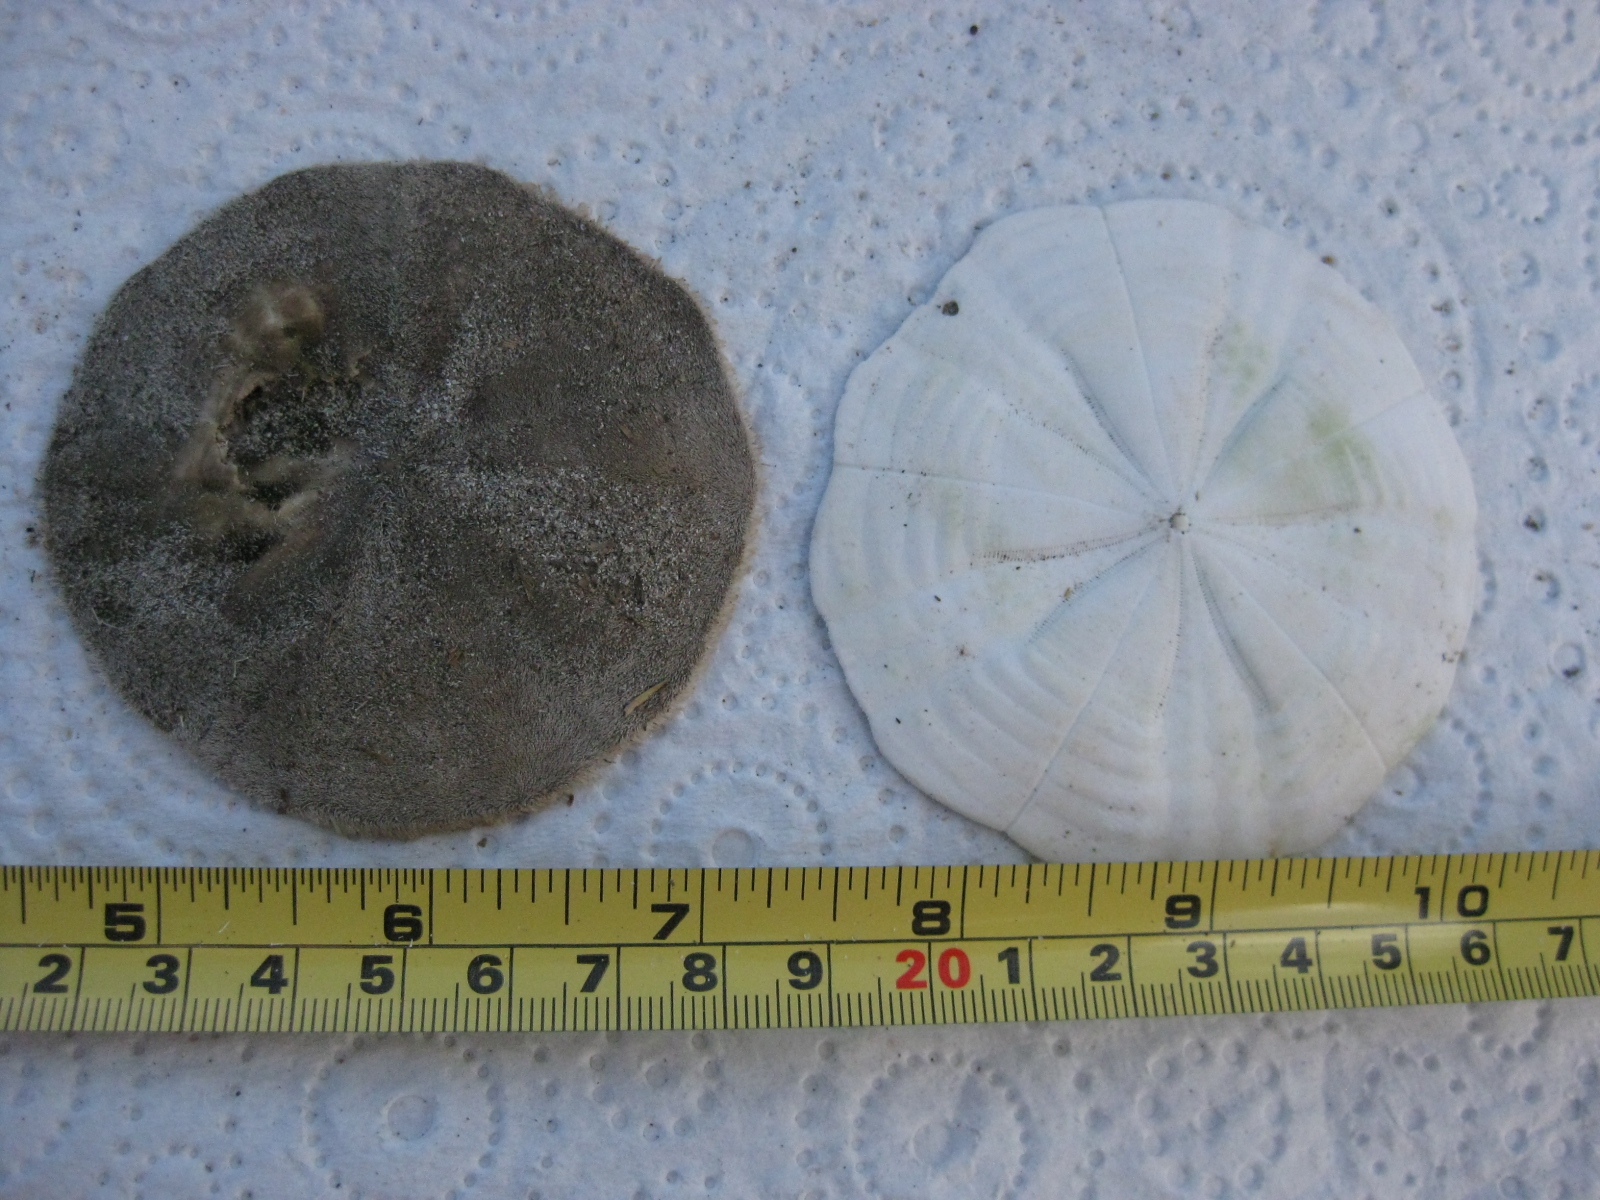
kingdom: Animalia
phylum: Echinodermata
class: Echinoidea
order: Clypeasteroida
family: Clypeasteridae
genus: Fellaster
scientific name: Fellaster zelandiae
